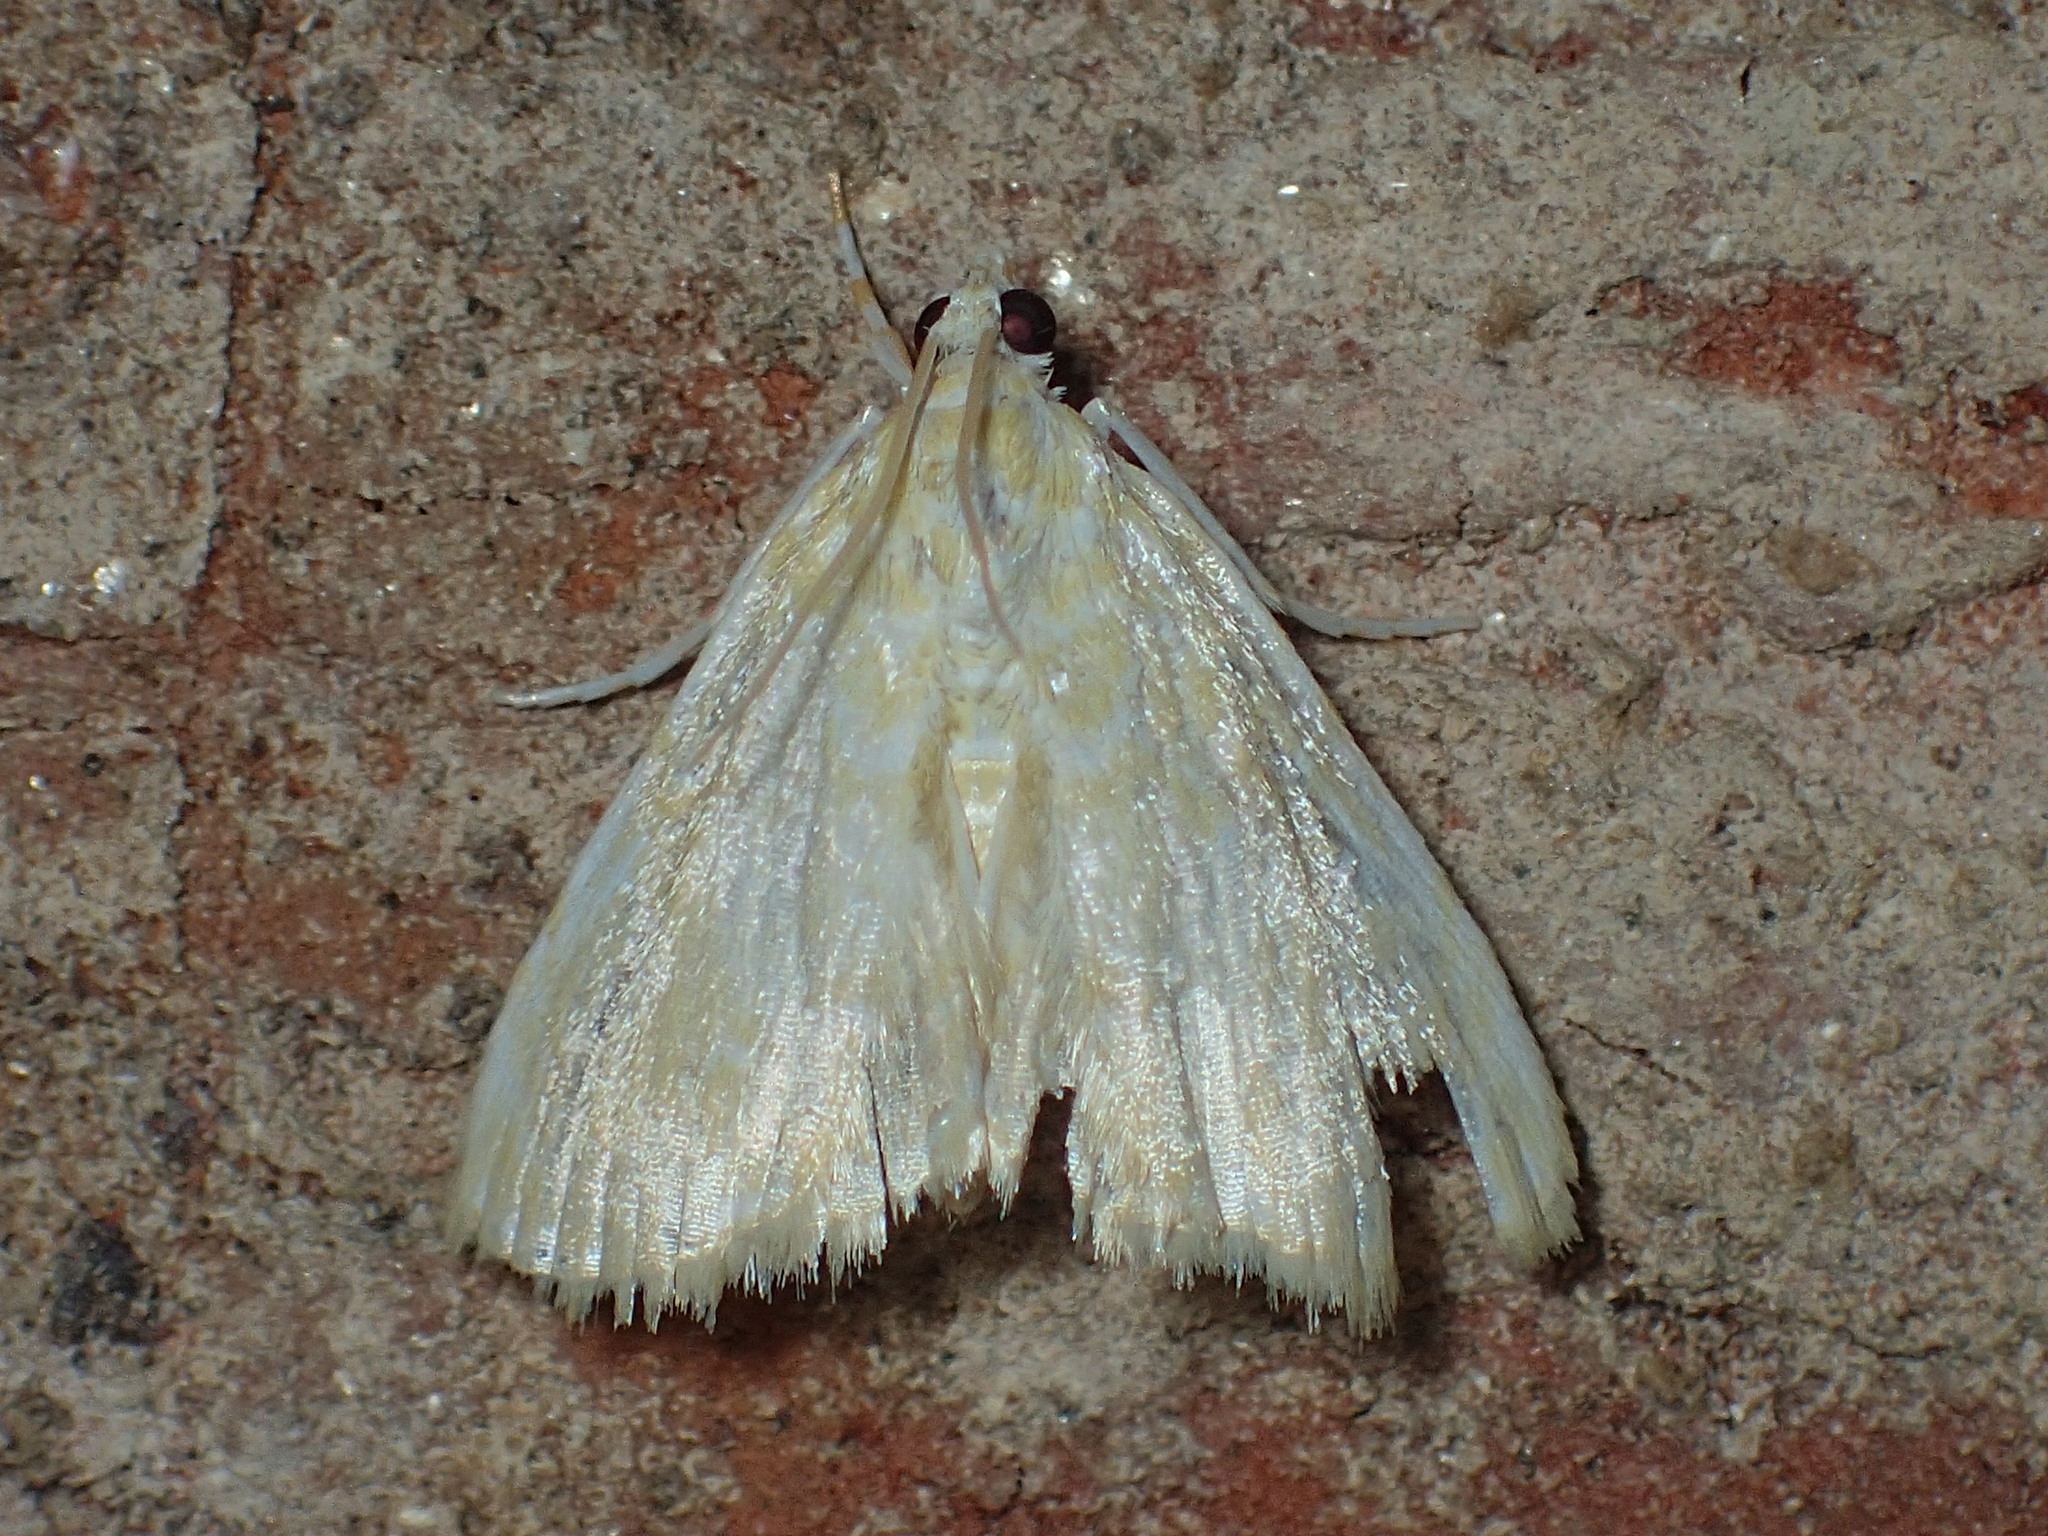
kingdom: Animalia
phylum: Arthropoda
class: Insecta
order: Lepidoptera
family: Crambidae
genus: Glaphyria
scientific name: Glaphyria glaphyralis
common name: Common glaphyria moth
